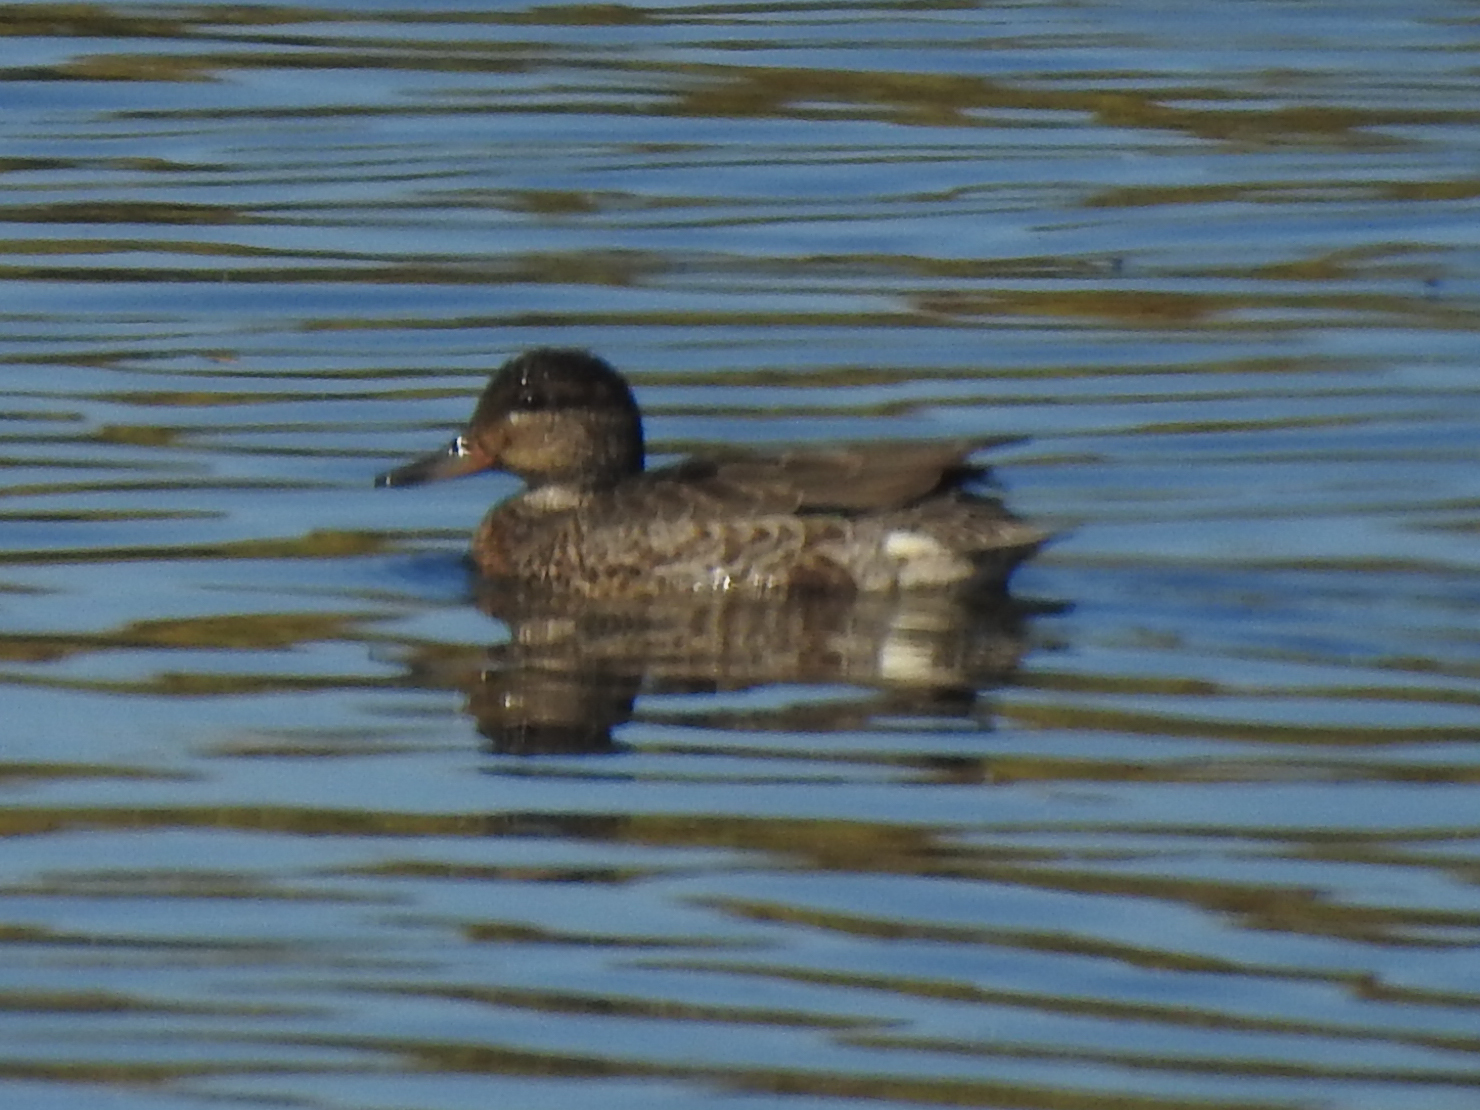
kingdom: Animalia
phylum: Chordata
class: Aves
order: Anseriformes
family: Anatidae
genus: Mareca
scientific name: Mareca strepera
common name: Gadwall
